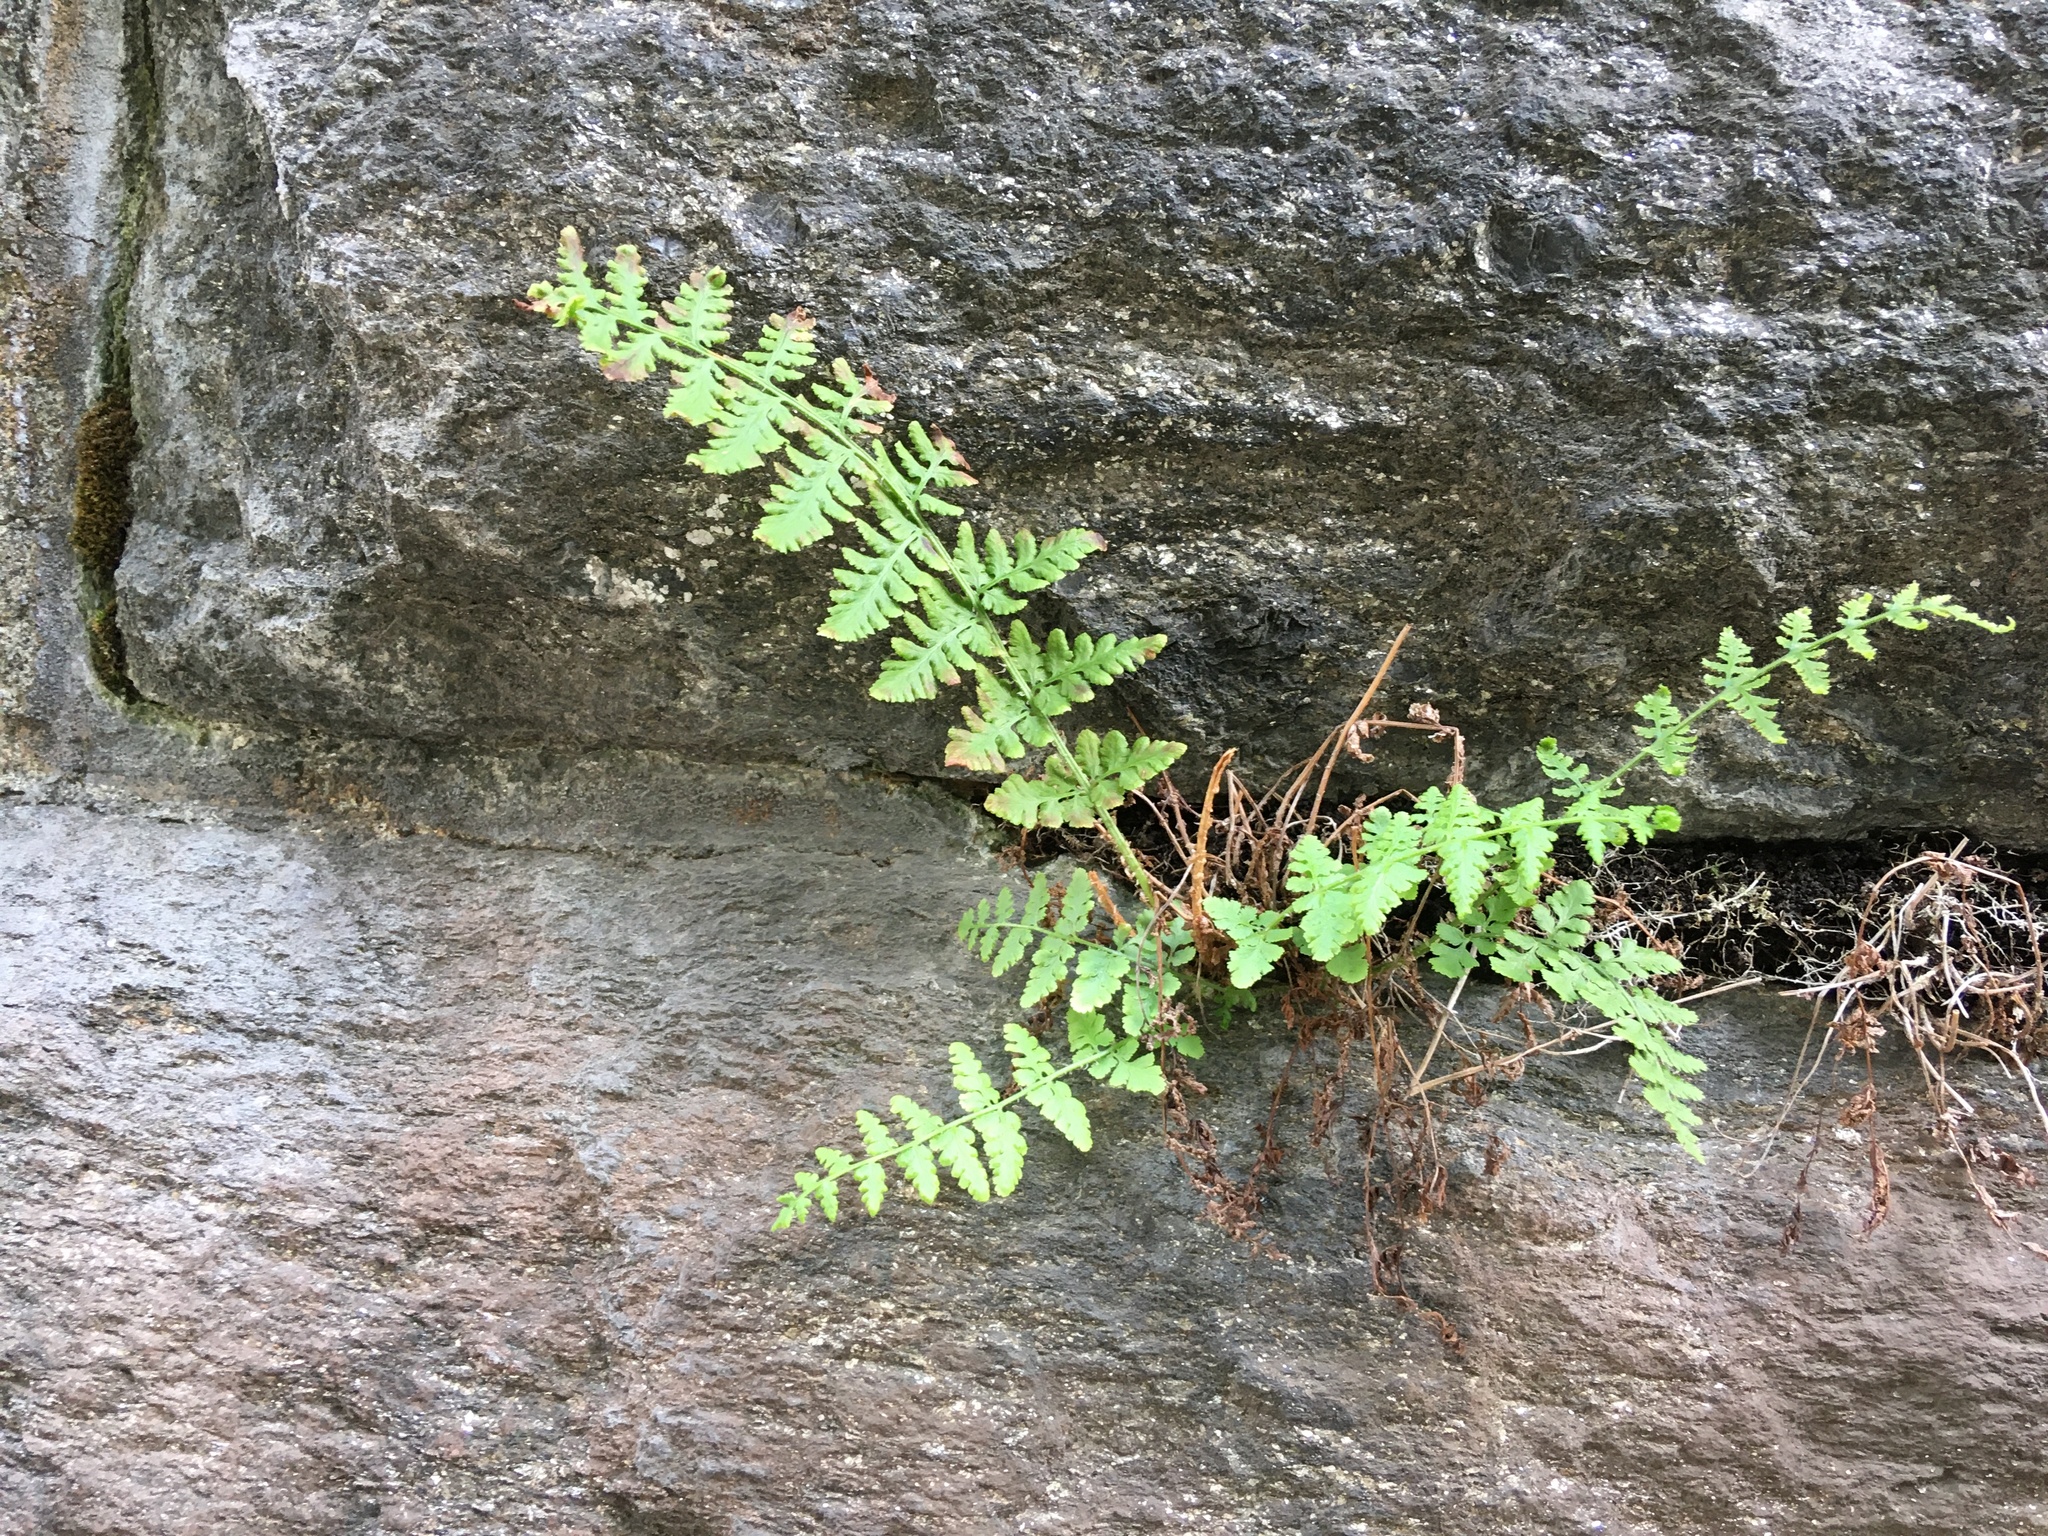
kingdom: Plantae
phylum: Tracheophyta
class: Polypodiopsida
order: Polypodiales
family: Woodsiaceae
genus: Physematium
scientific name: Physematium obtusum
